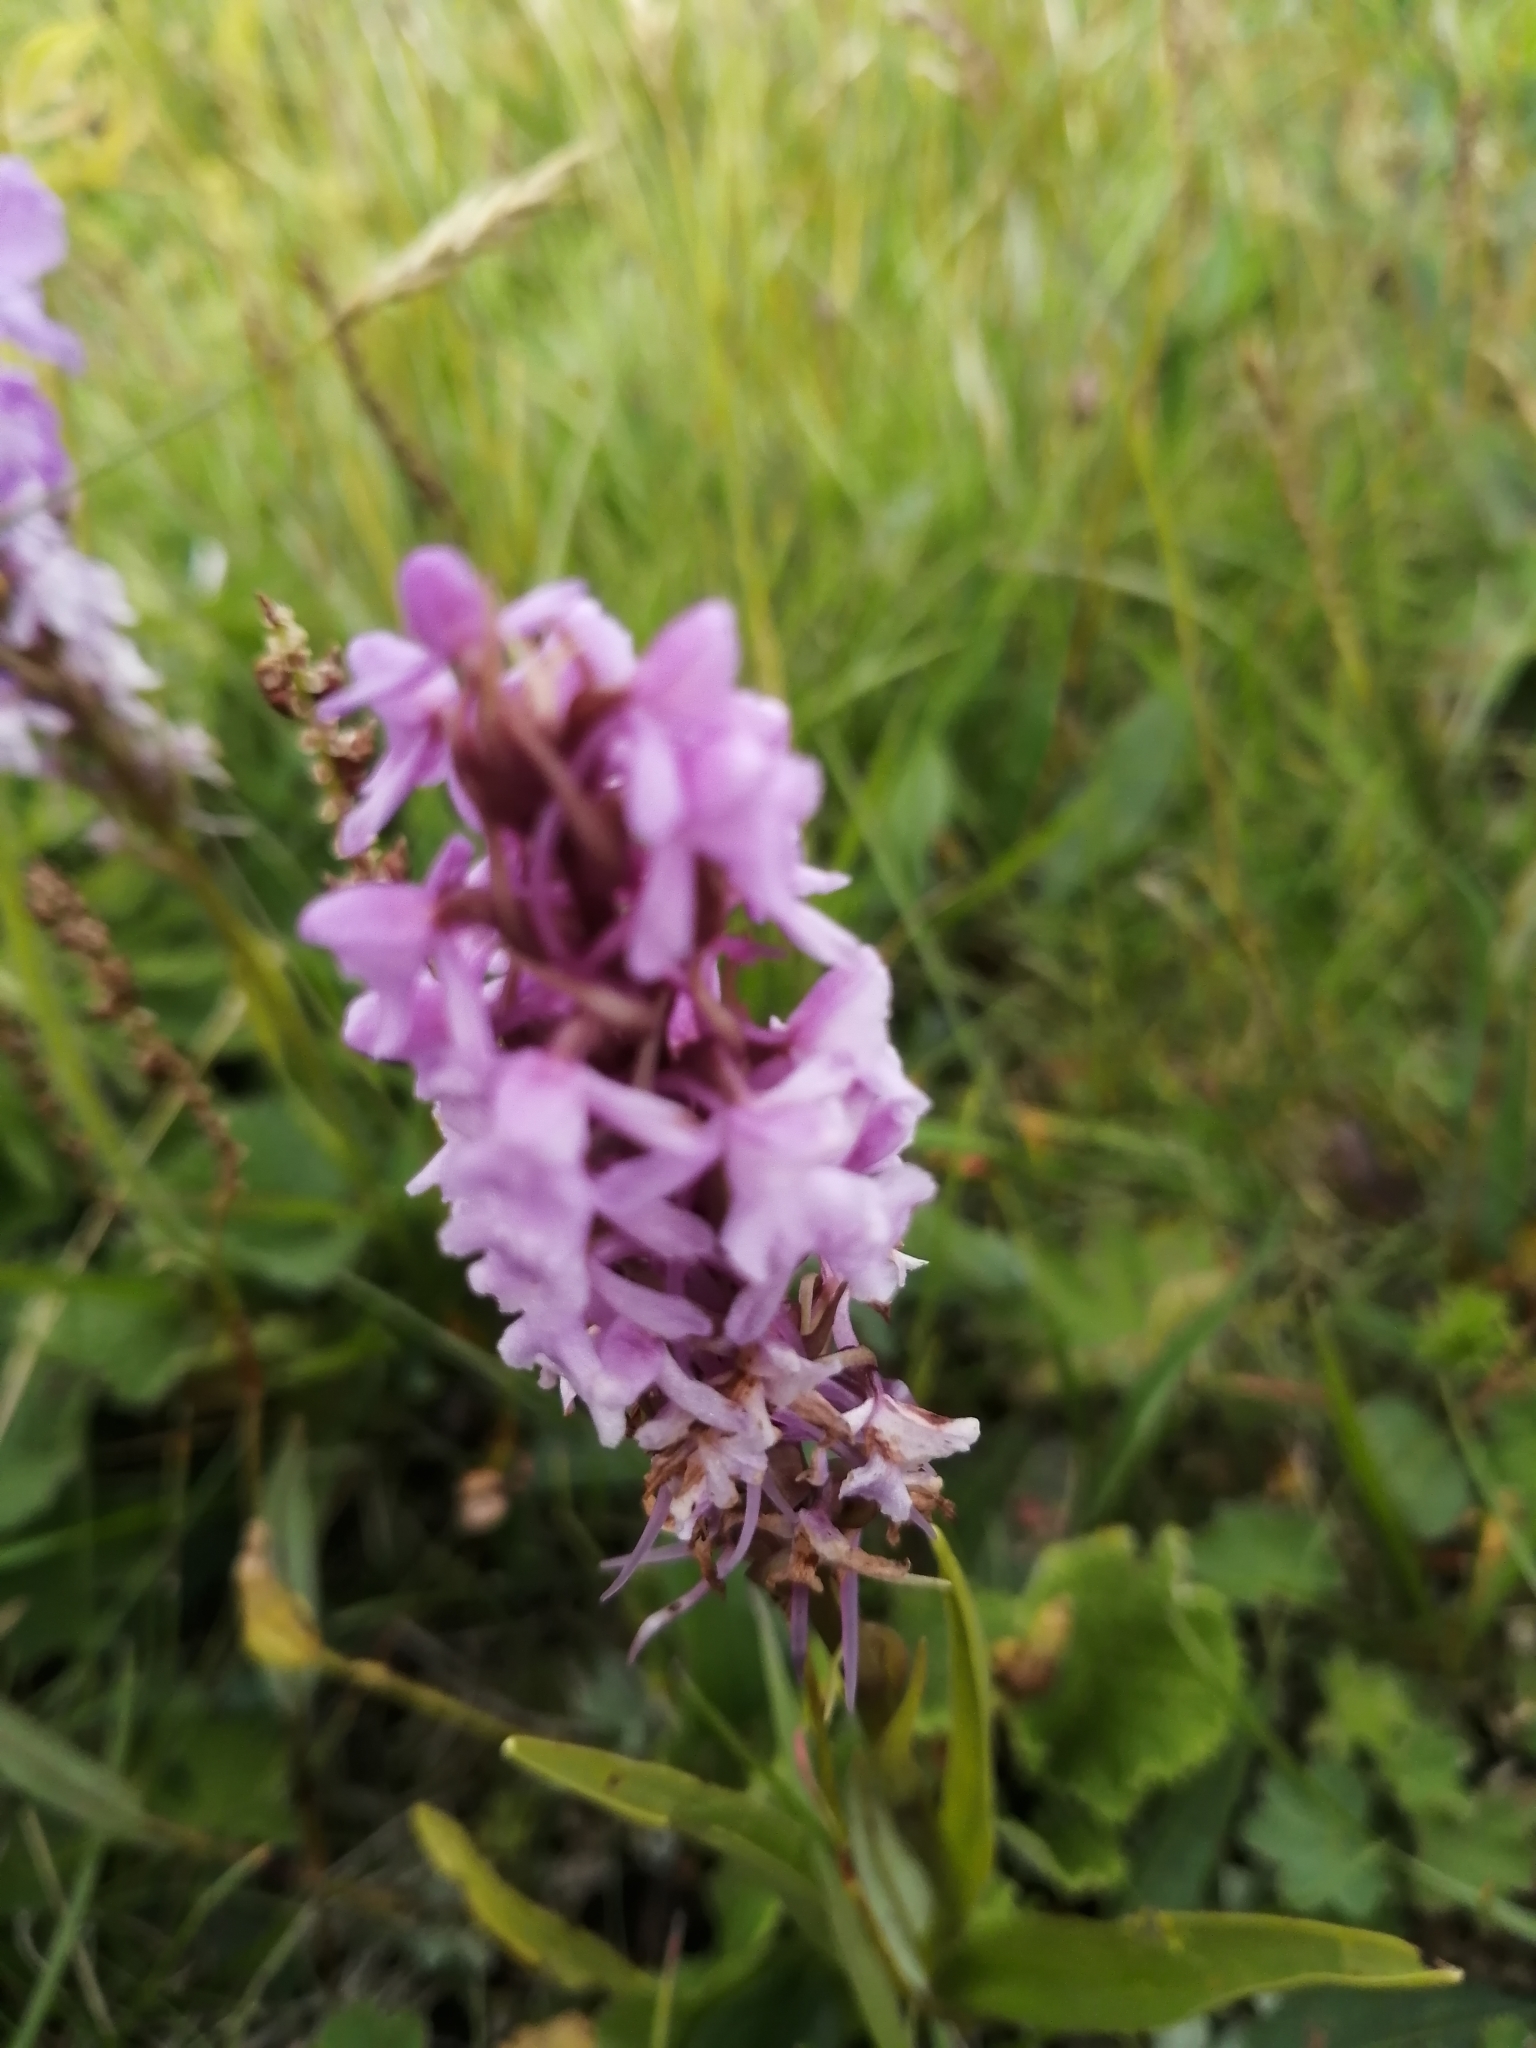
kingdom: Plantae
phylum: Tracheophyta
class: Liliopsida
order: Asparagales
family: Orchidaceae
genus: Gymnadenia
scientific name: Gymnadenia conopsea
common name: Fragrant orchid
